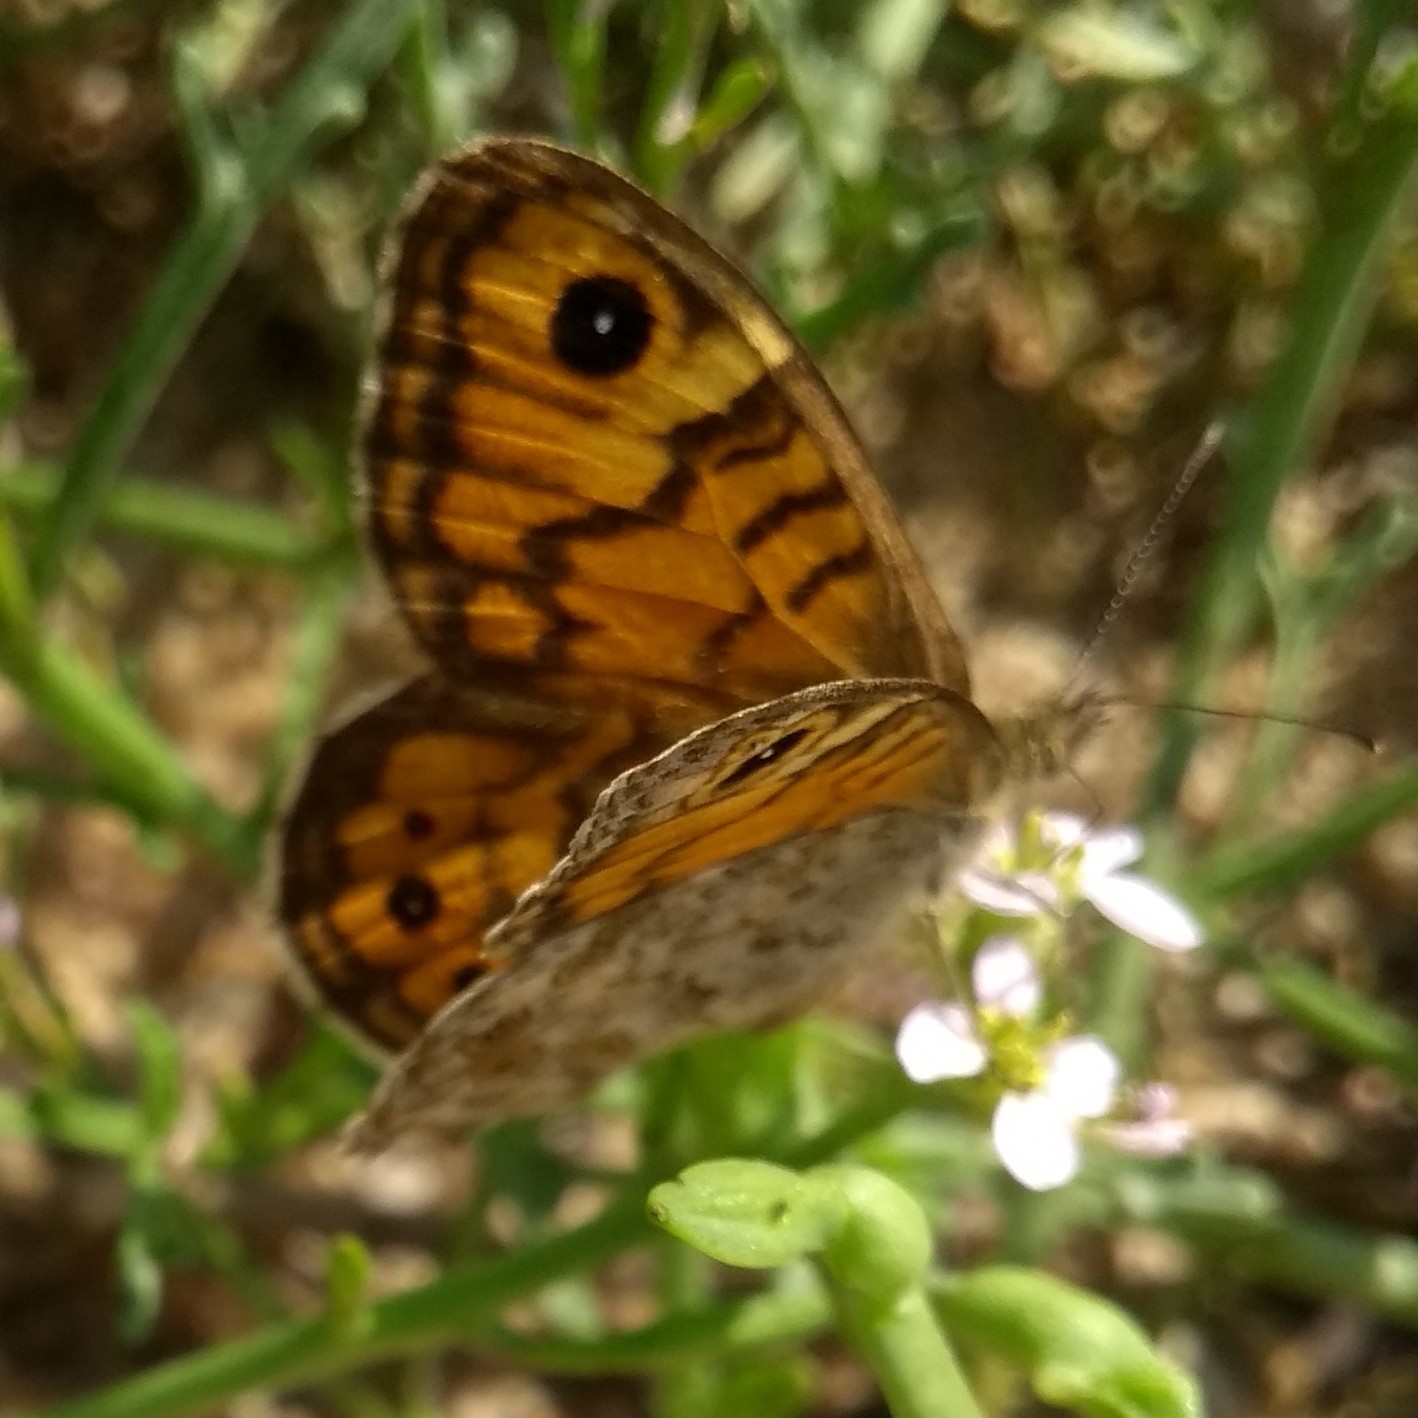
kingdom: Animalia
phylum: Arthropoda
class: Insecta
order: Lepidoptera
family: Nymphalidae
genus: Pararge
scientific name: Pararge Lasiommata megera
